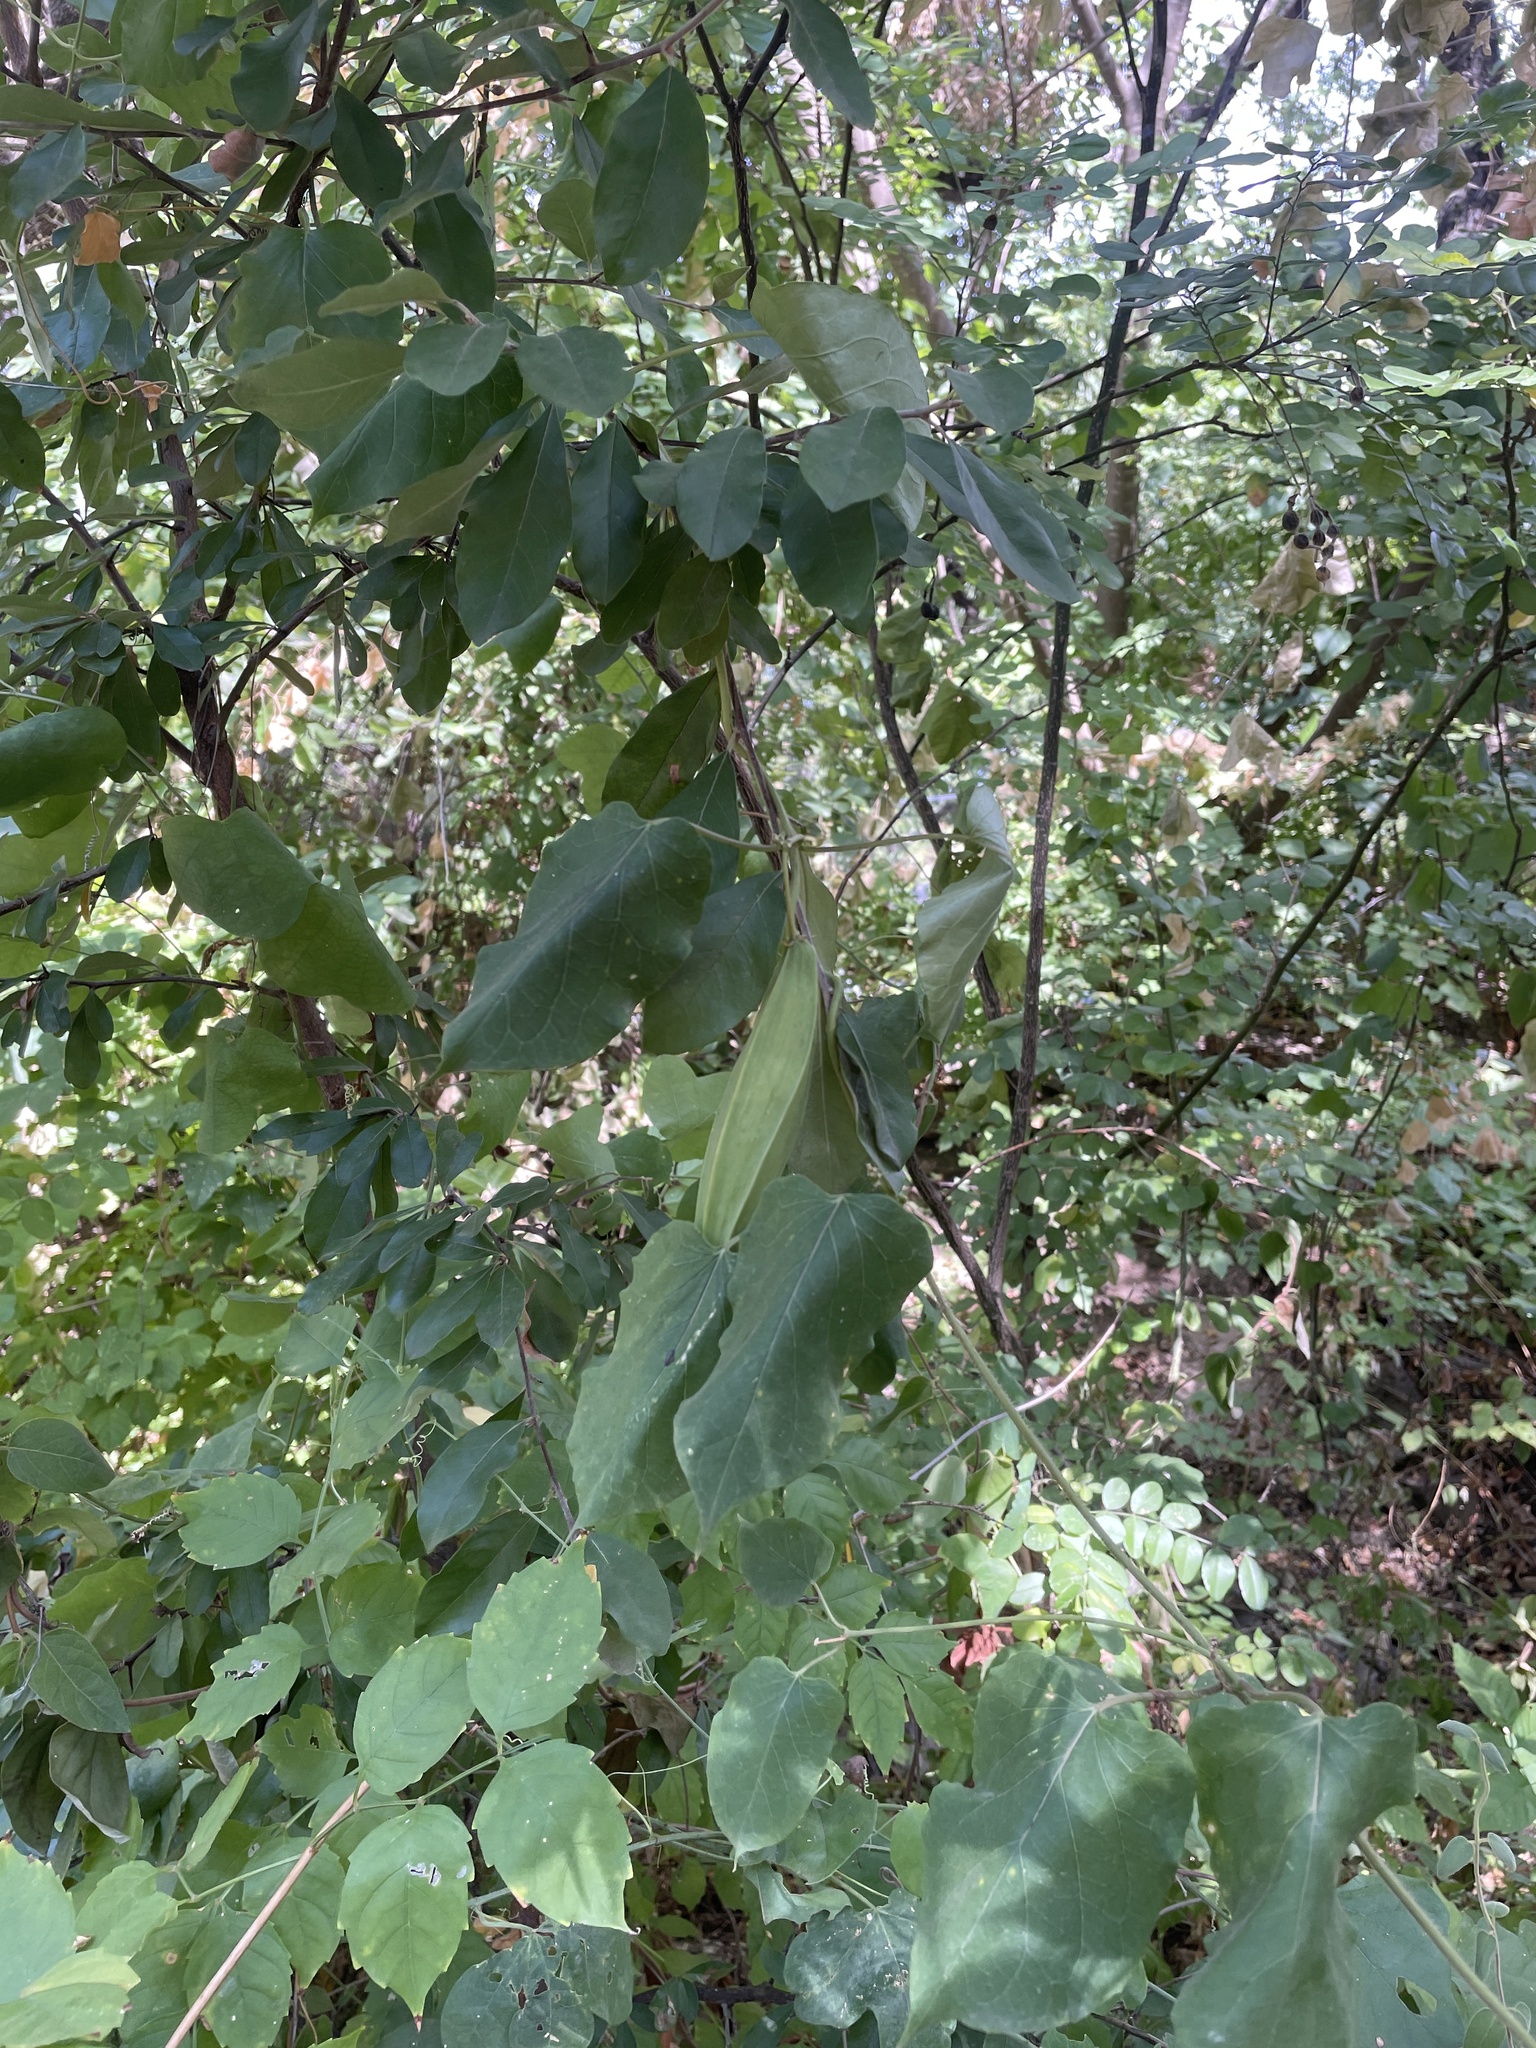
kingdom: Plantae
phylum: Tracheophyta
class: Magnoliopsida
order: Gentianales
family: Apocynaceae
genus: Gonolobus
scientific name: Gonolobus suberosus
